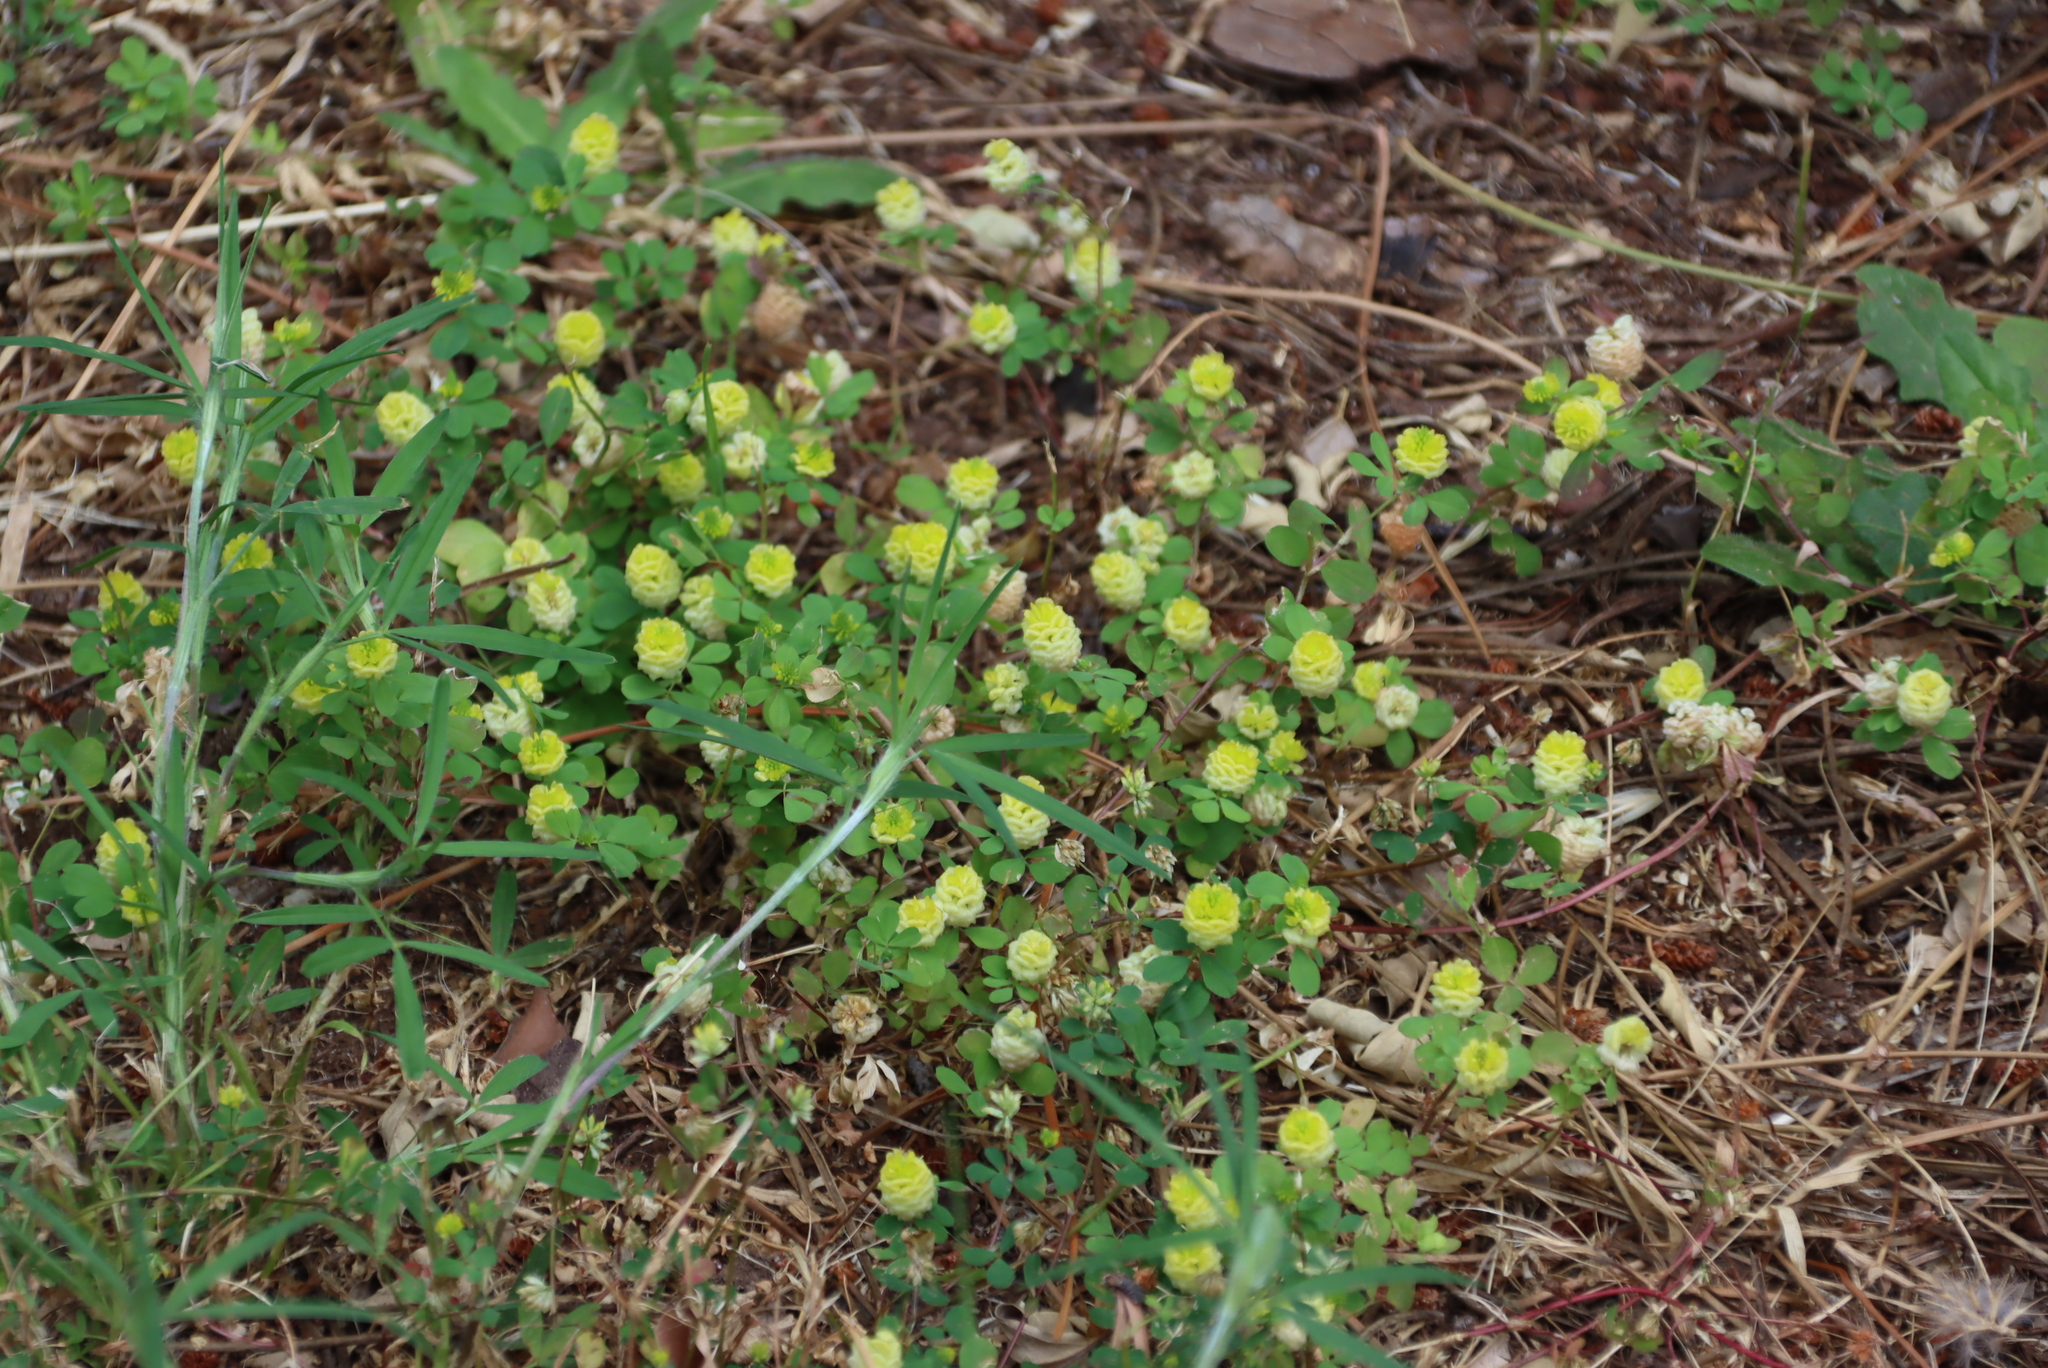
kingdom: Plantae
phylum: Tracheophyta
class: Magnoliopsida
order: Fabales
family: Fabaceae
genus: Trifolium
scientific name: Trifolium campestre
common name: Field clover
